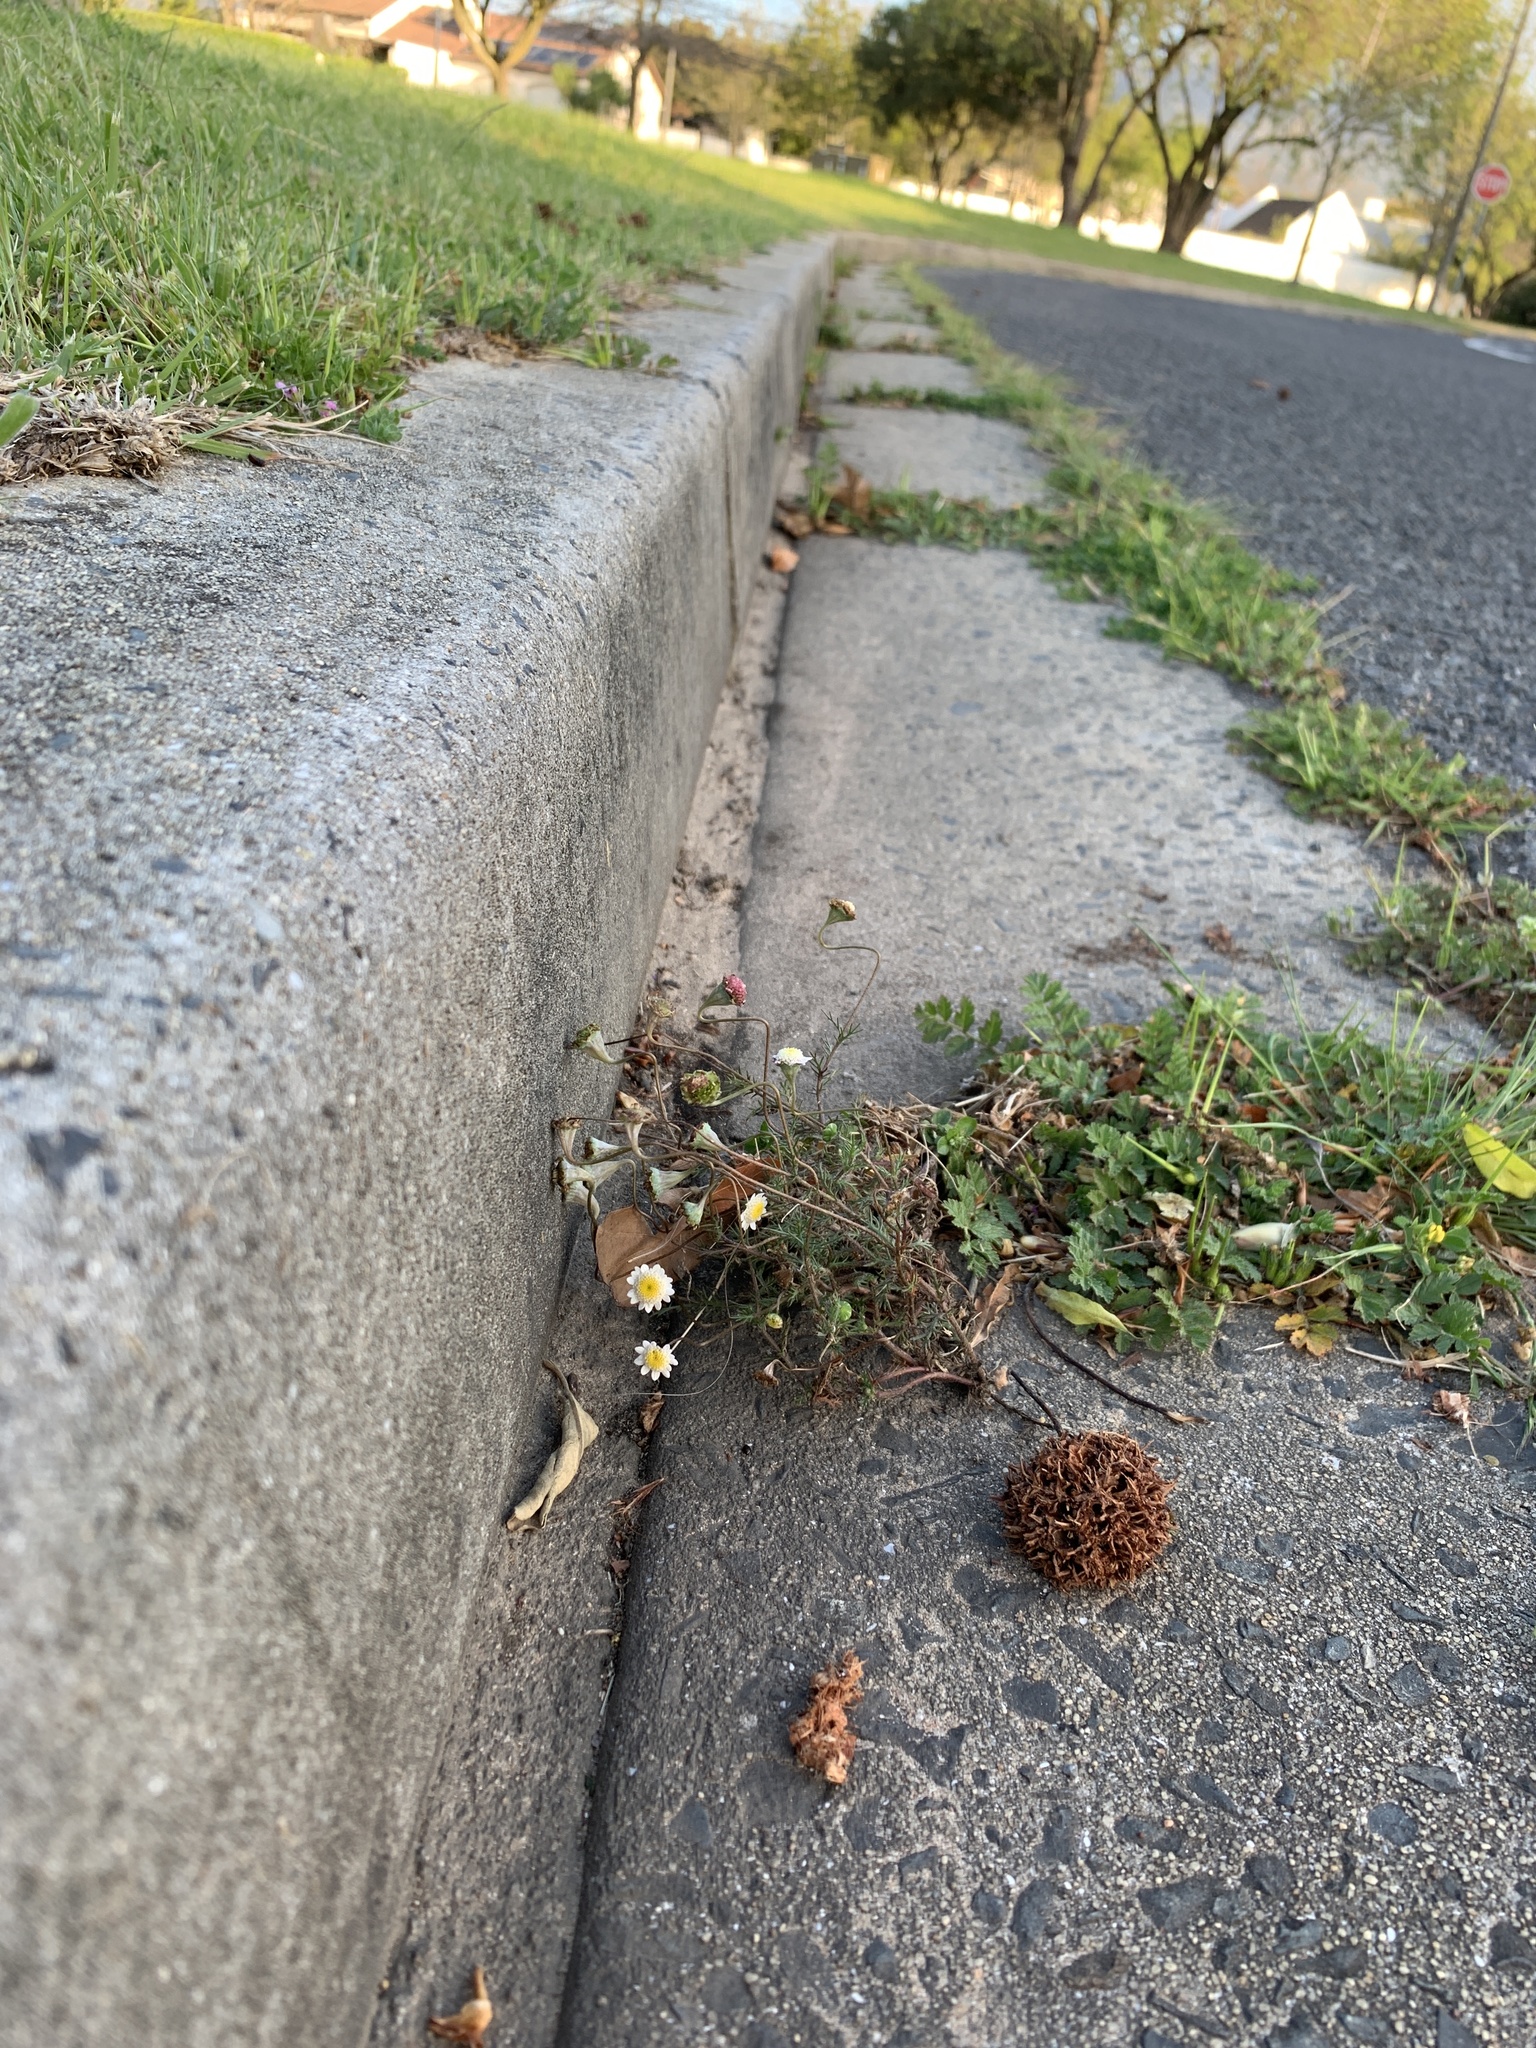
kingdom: Plantae
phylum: Tracheophyta
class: Magnoliopsida
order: Asterales
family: Asteraceae
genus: Cotula
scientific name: Cotula turbinata
